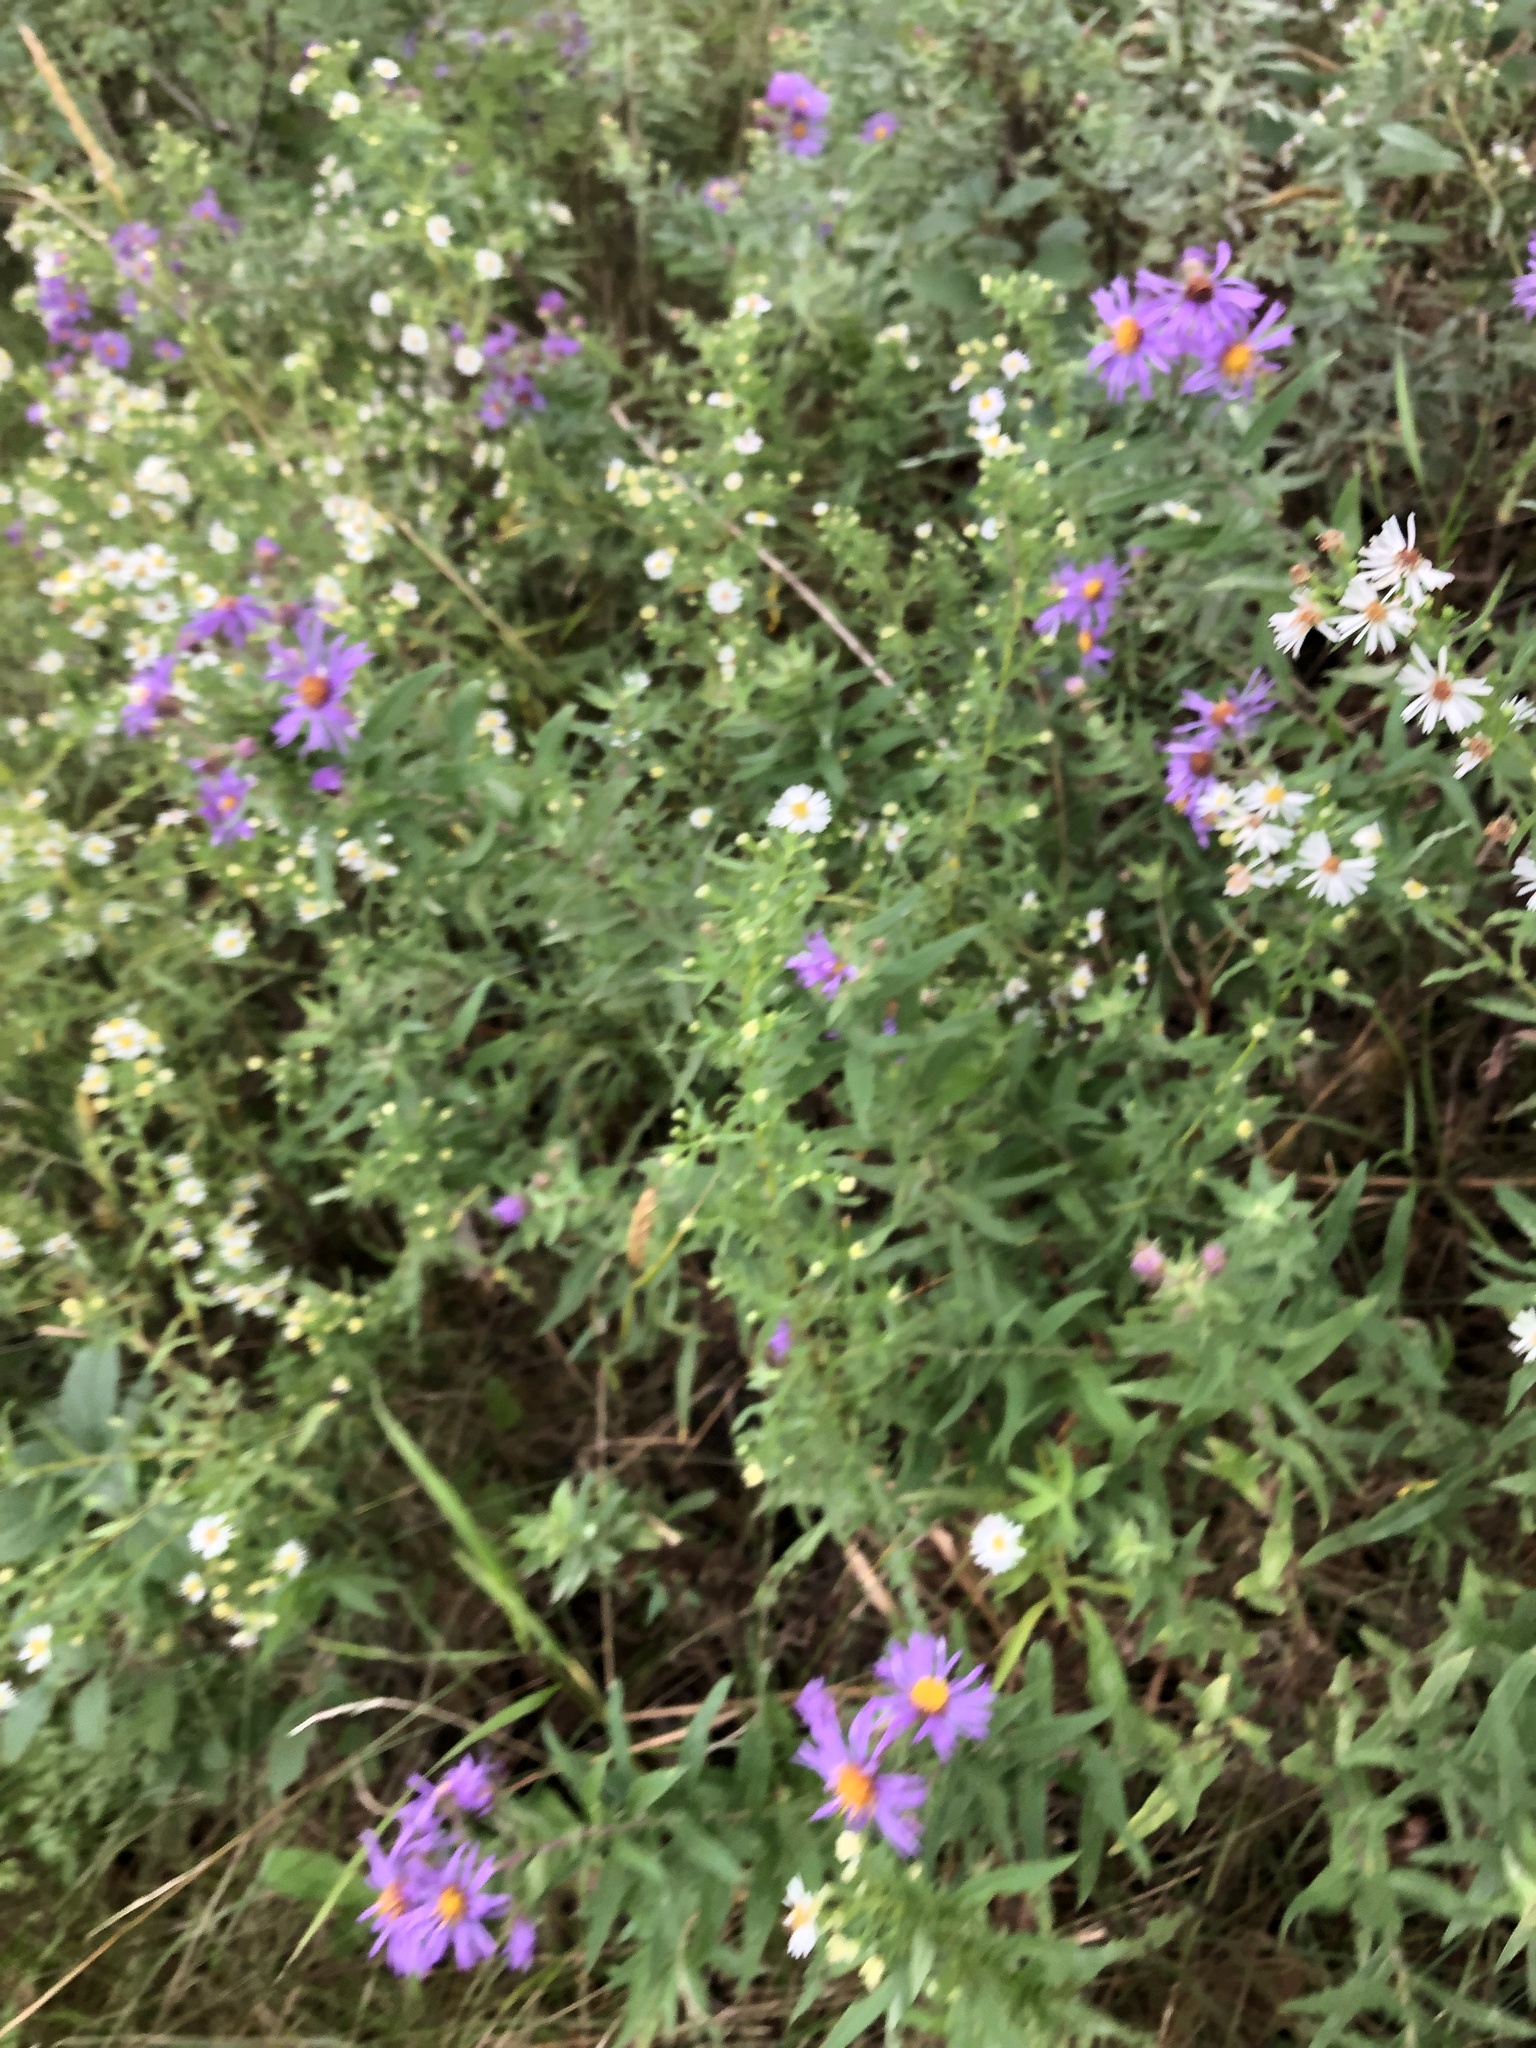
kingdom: Plantae
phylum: Tracheophyta
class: Magnoliopsida
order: Asterales
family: Asteraceae
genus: Symphyotrichum
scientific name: Symphyotrichum novae-angliae
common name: Michaelmas daisy
